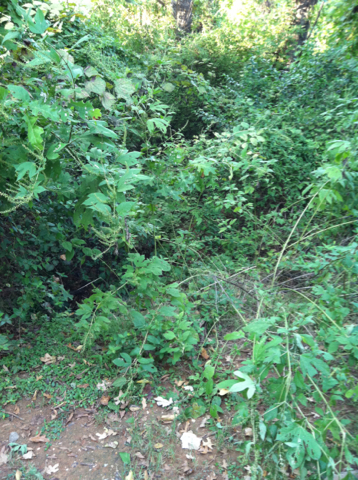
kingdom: Plantae
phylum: Tracheophyta
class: Magnoliopsida
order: Asterales
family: Asteraceae
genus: Ambrosia
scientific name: Ambrosia trifida
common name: Giant ragweed
